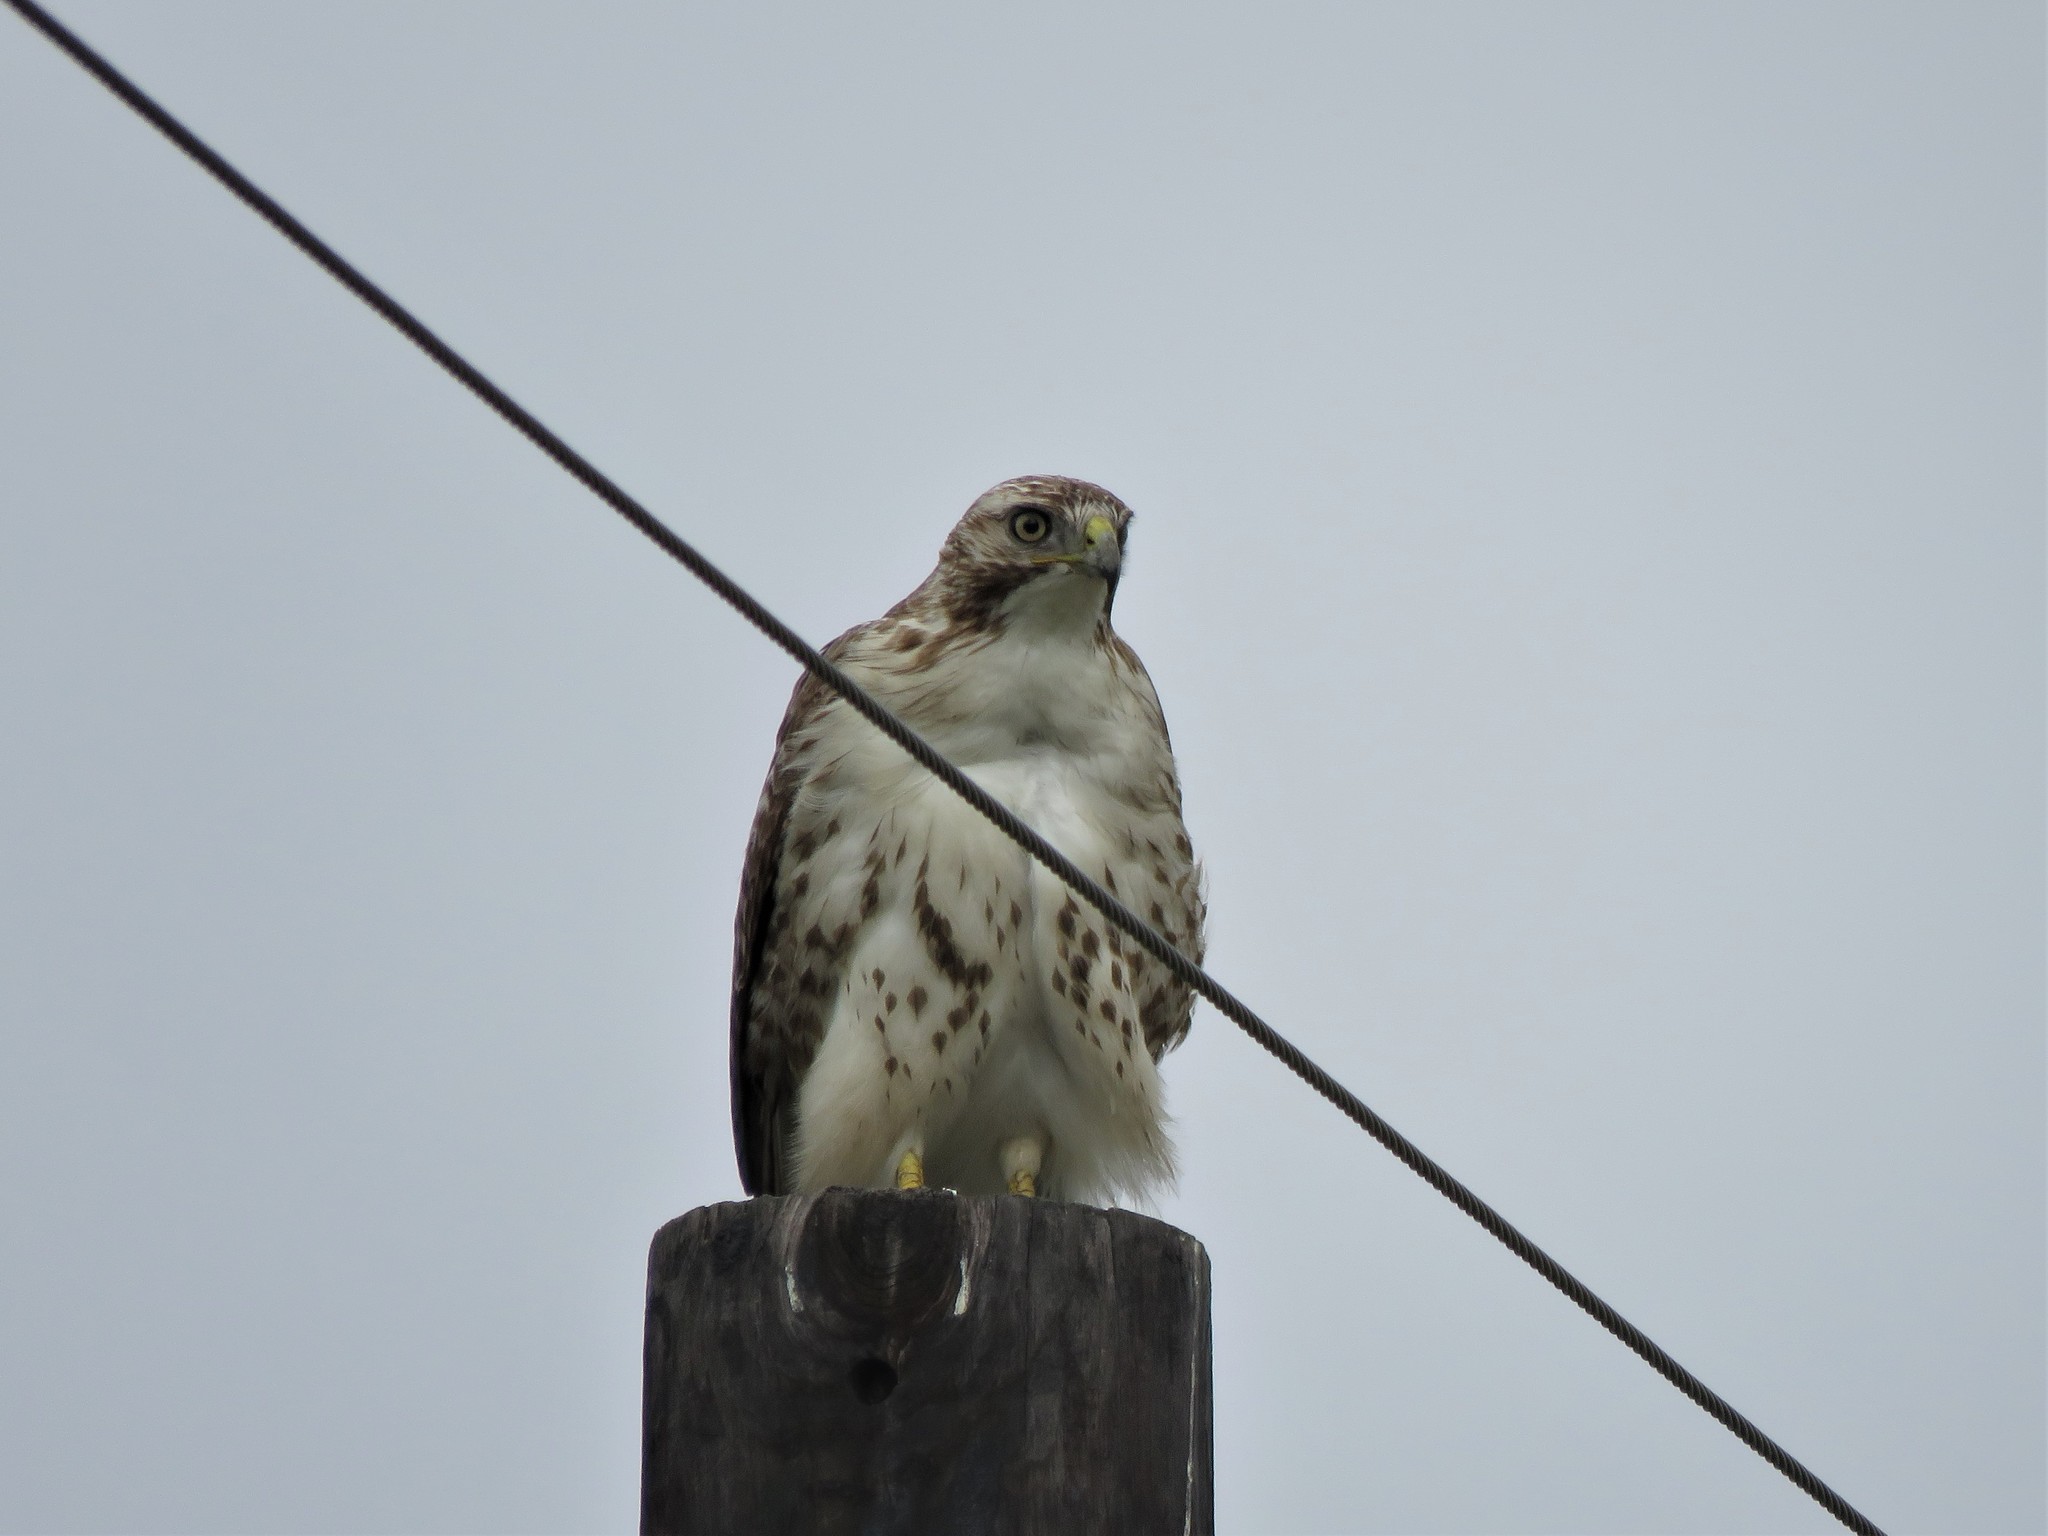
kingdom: Animalia
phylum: Chordata
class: Aves
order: Accipitriformes
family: Accipitridae
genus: Buteo
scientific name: Buteo jamaicensis
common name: Red-tailed hawk
